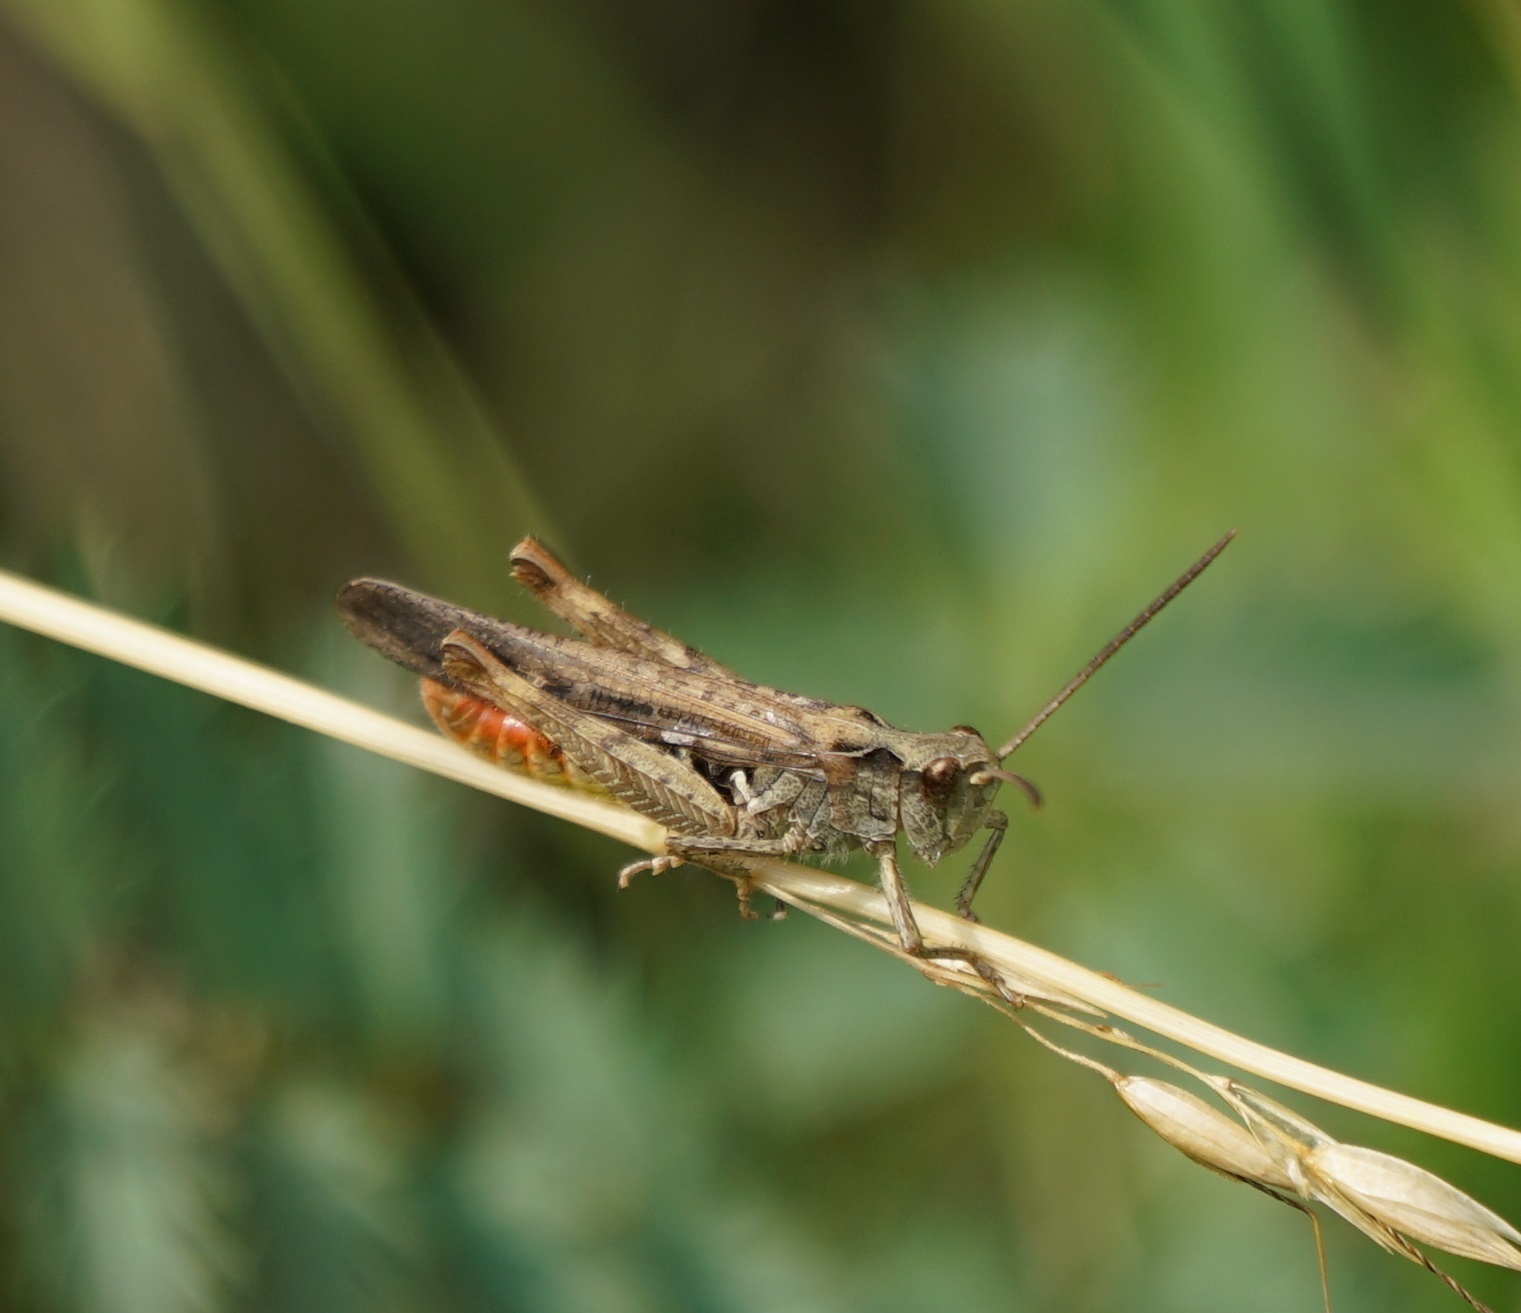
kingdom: Animalia
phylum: Arthropoda
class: Insecta
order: Orthoptera
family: Acrididae
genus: Chorthippus
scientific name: Chorthippus brunneus
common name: Field grasshopper
